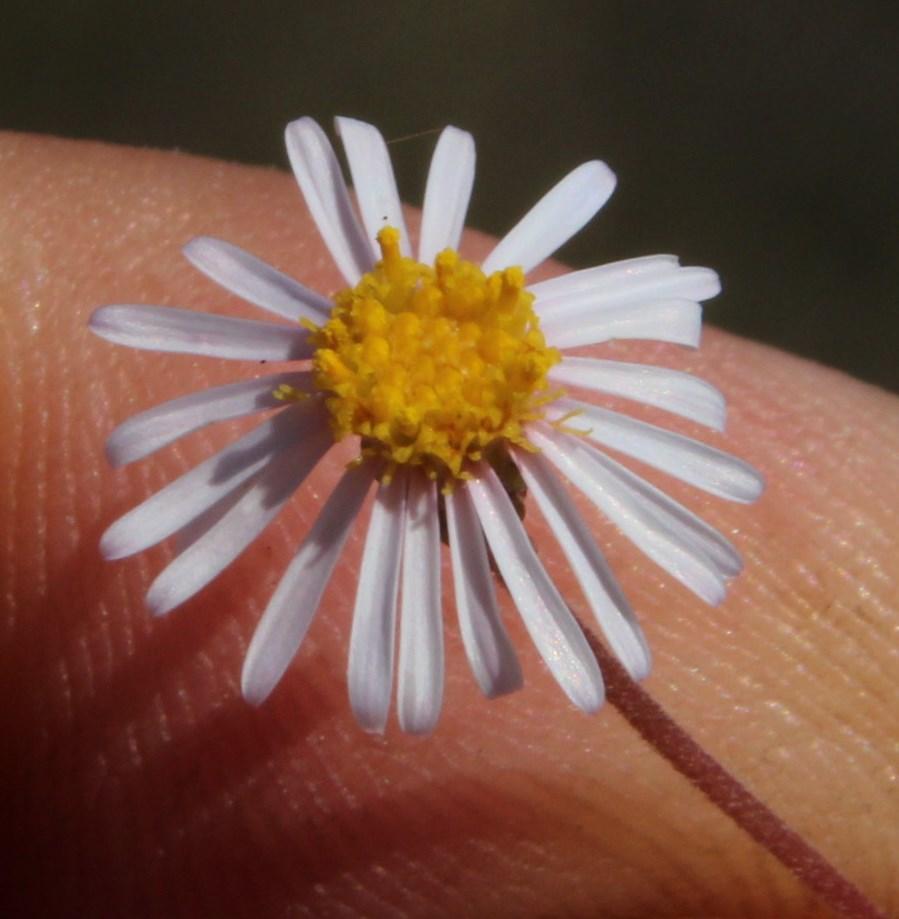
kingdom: Plantae
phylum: Tracheophyta
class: Magnoliopsida
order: Asterales
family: Asteraceae
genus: Felicia
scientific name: Felicia hyssopifolia
